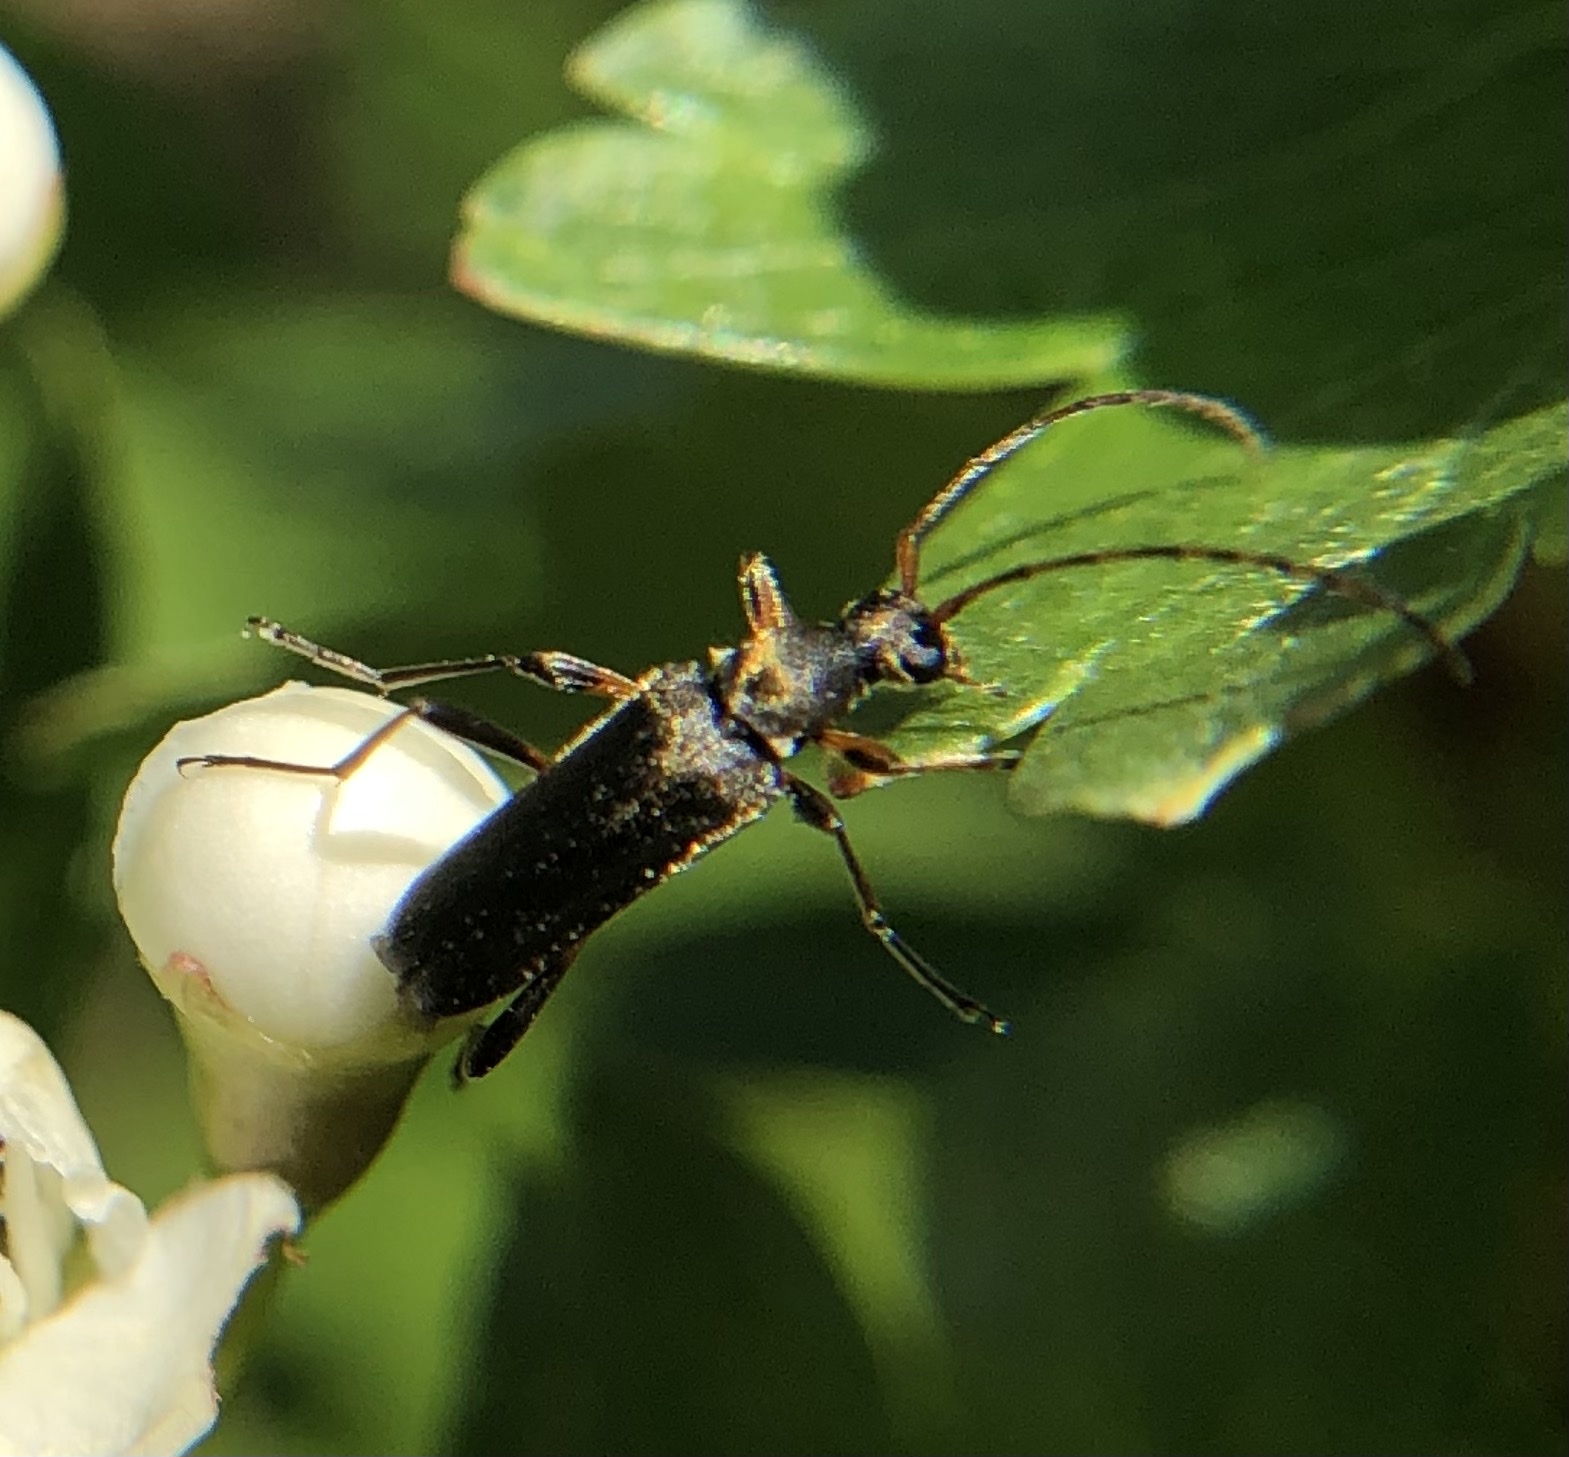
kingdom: Animalia
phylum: Arthropoda
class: Insecta
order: Coleoptera
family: Cerambycidae
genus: Grammoptera
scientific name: Grammoptera ruficornis
